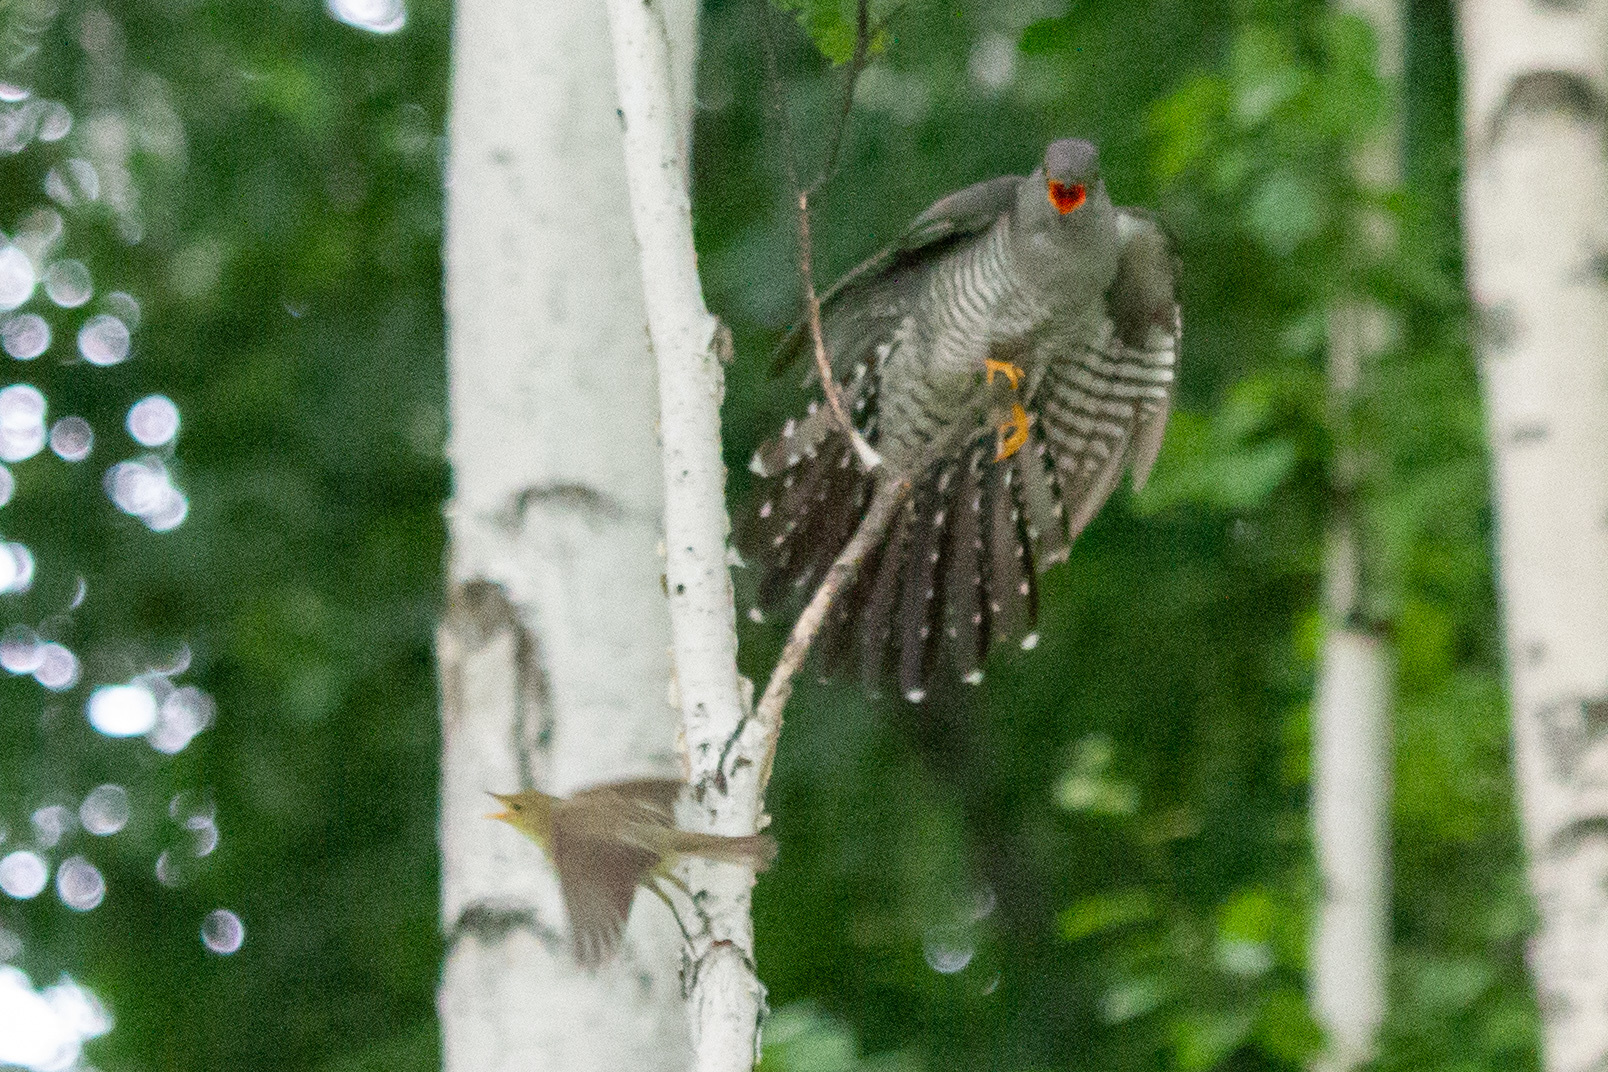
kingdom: Animalia
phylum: Chordata
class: Aves
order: Cuculiformes
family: Cuculidae
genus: Cuculus
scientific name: Cuculus canorus
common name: Common cuckoo
